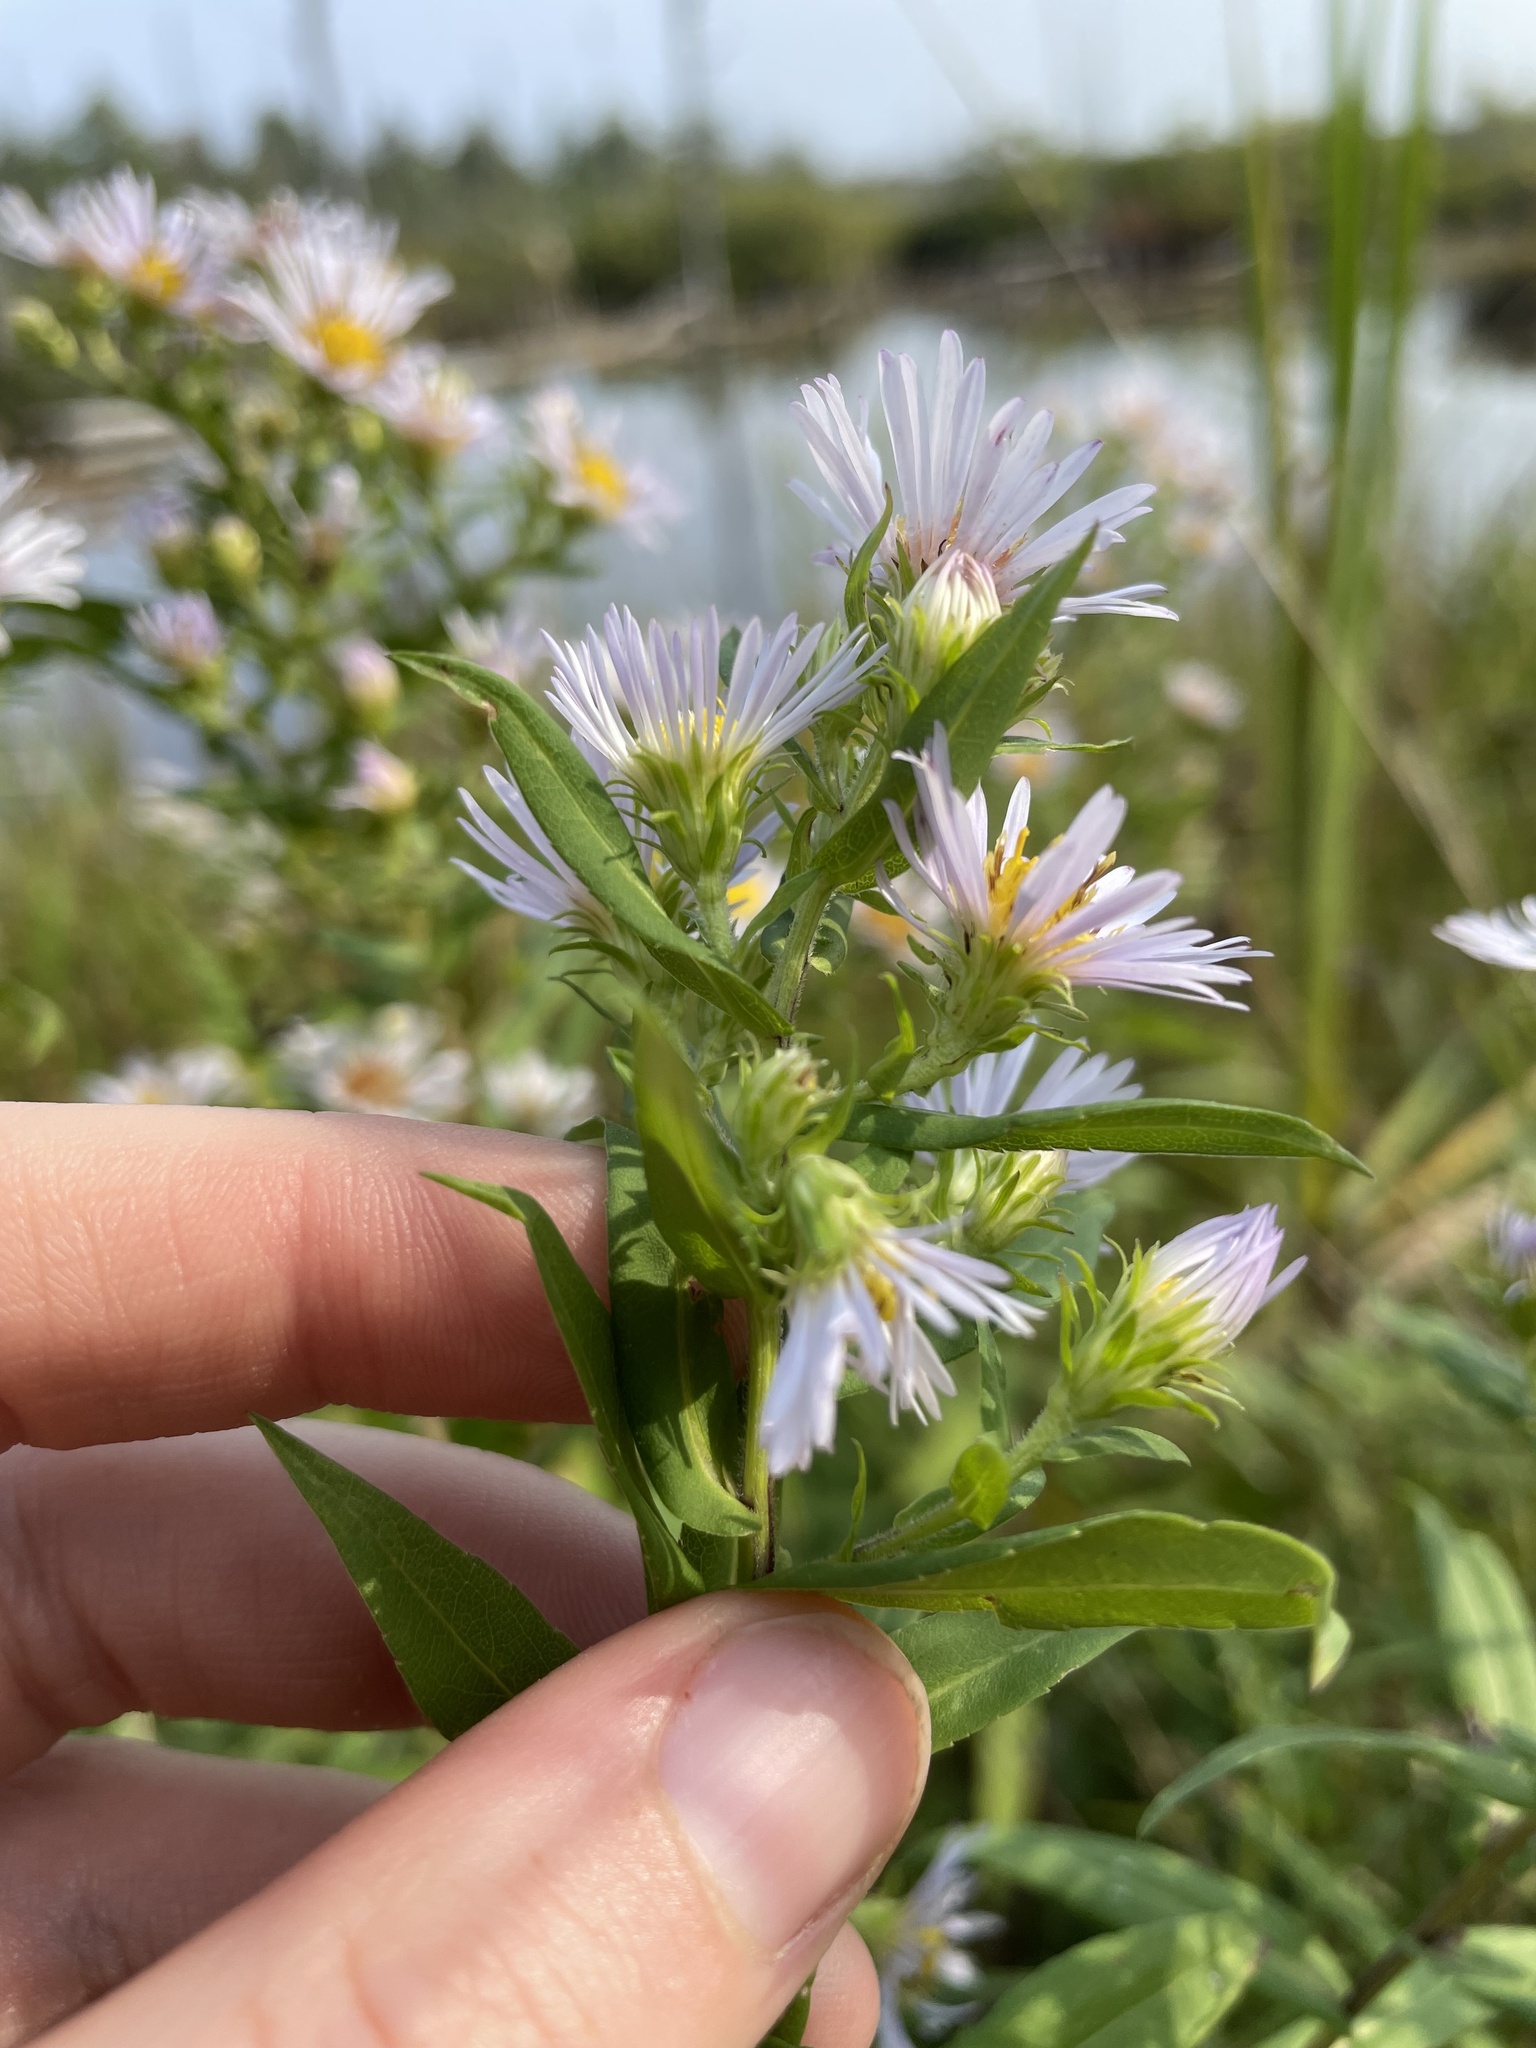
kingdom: Plantae
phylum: Tracheophyta
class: Magnoliopsida
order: Asterales
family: Asteraceae
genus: Symphyotrichum
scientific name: Symphyotrichum firmum
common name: Shining aster
